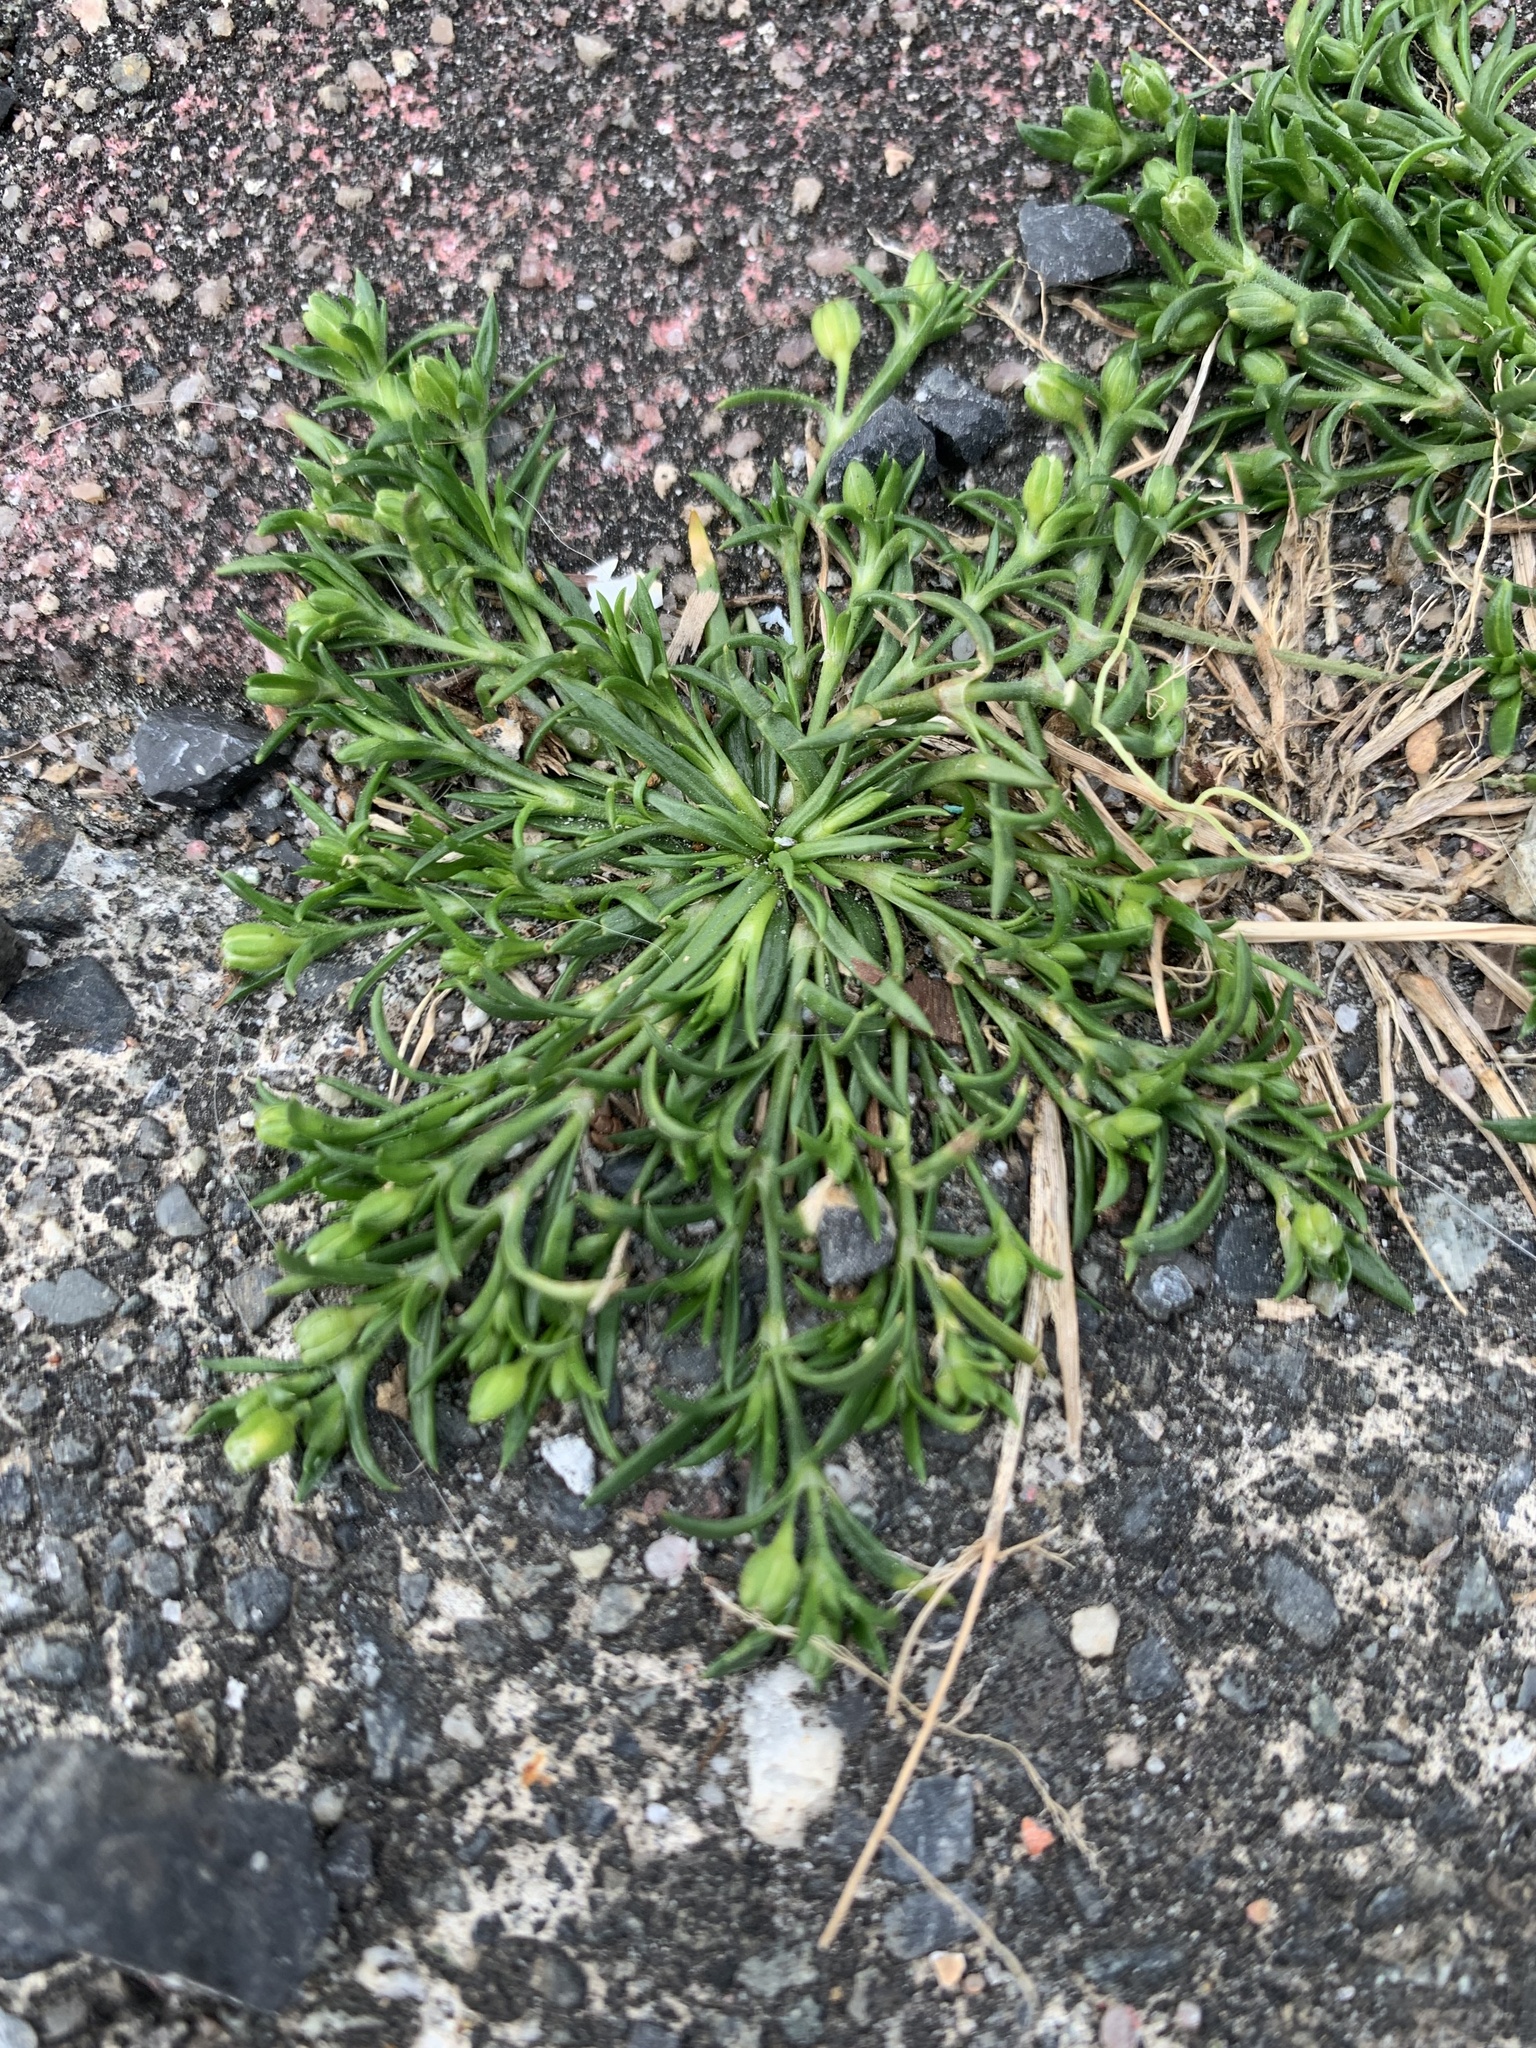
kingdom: Plantae
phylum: Tracheophyta
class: Magnoliopsida
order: Caryophyllales
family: Caryophyllaceae
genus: Sagina
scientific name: Sagina maxima
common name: Coastal pearlwort
